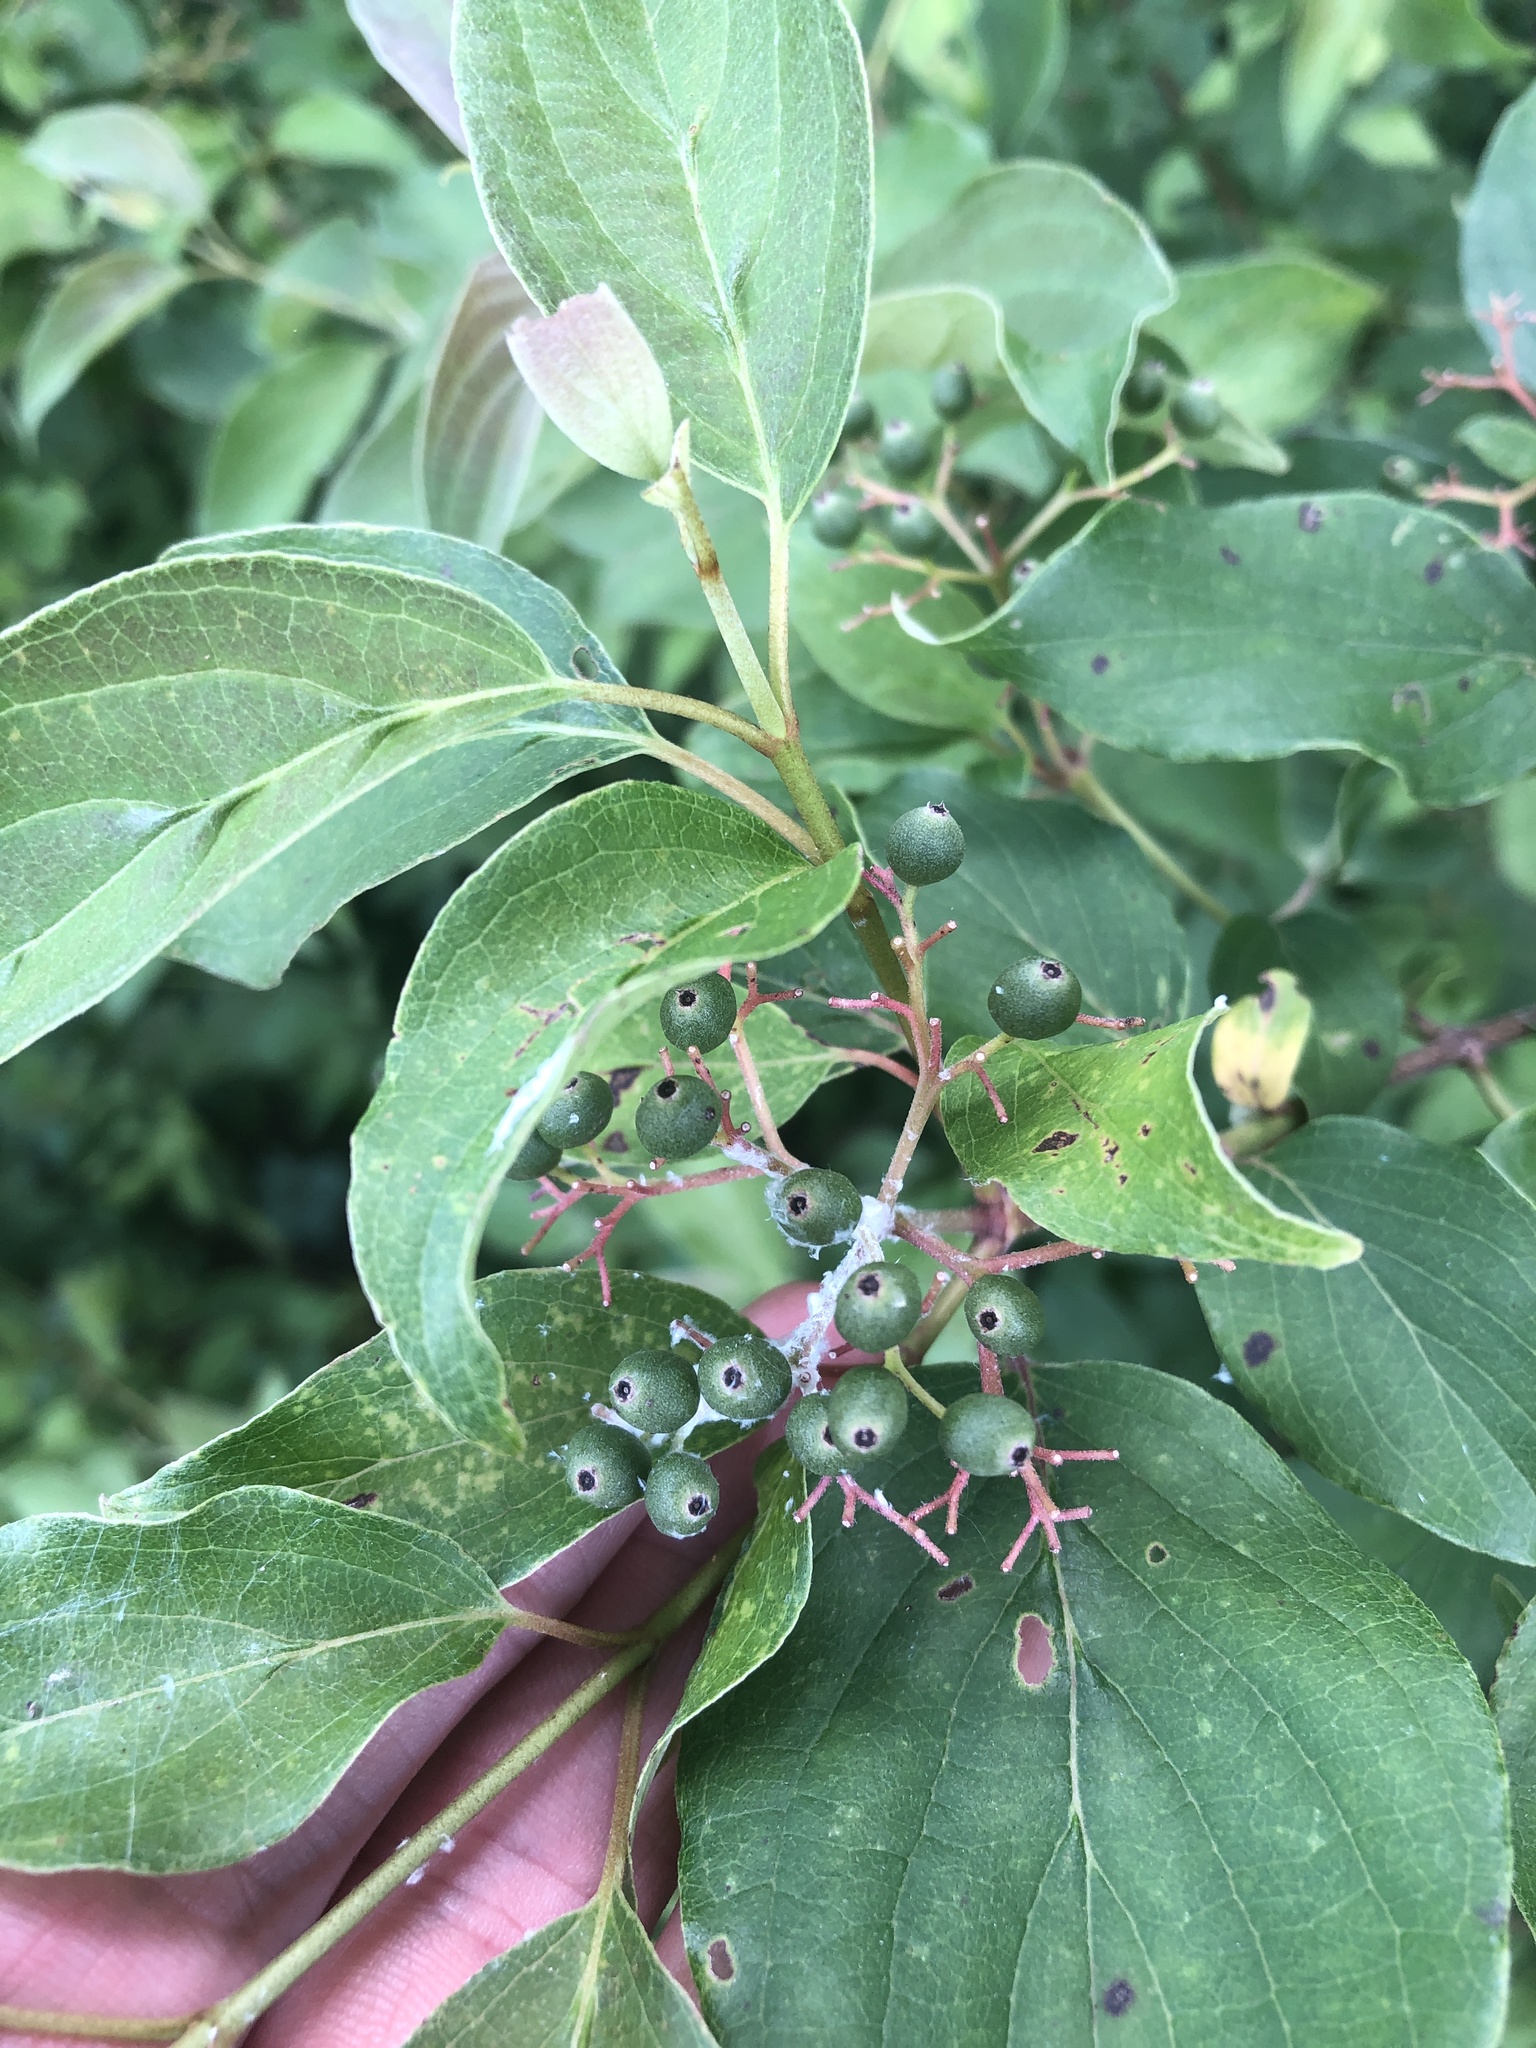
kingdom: Plantae
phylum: Tracheophyta
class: Magnoliopsida
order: Cornales
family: Cornaceae
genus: Cornus
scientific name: Cornus drummondii
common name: Rough-leaf dogwood
